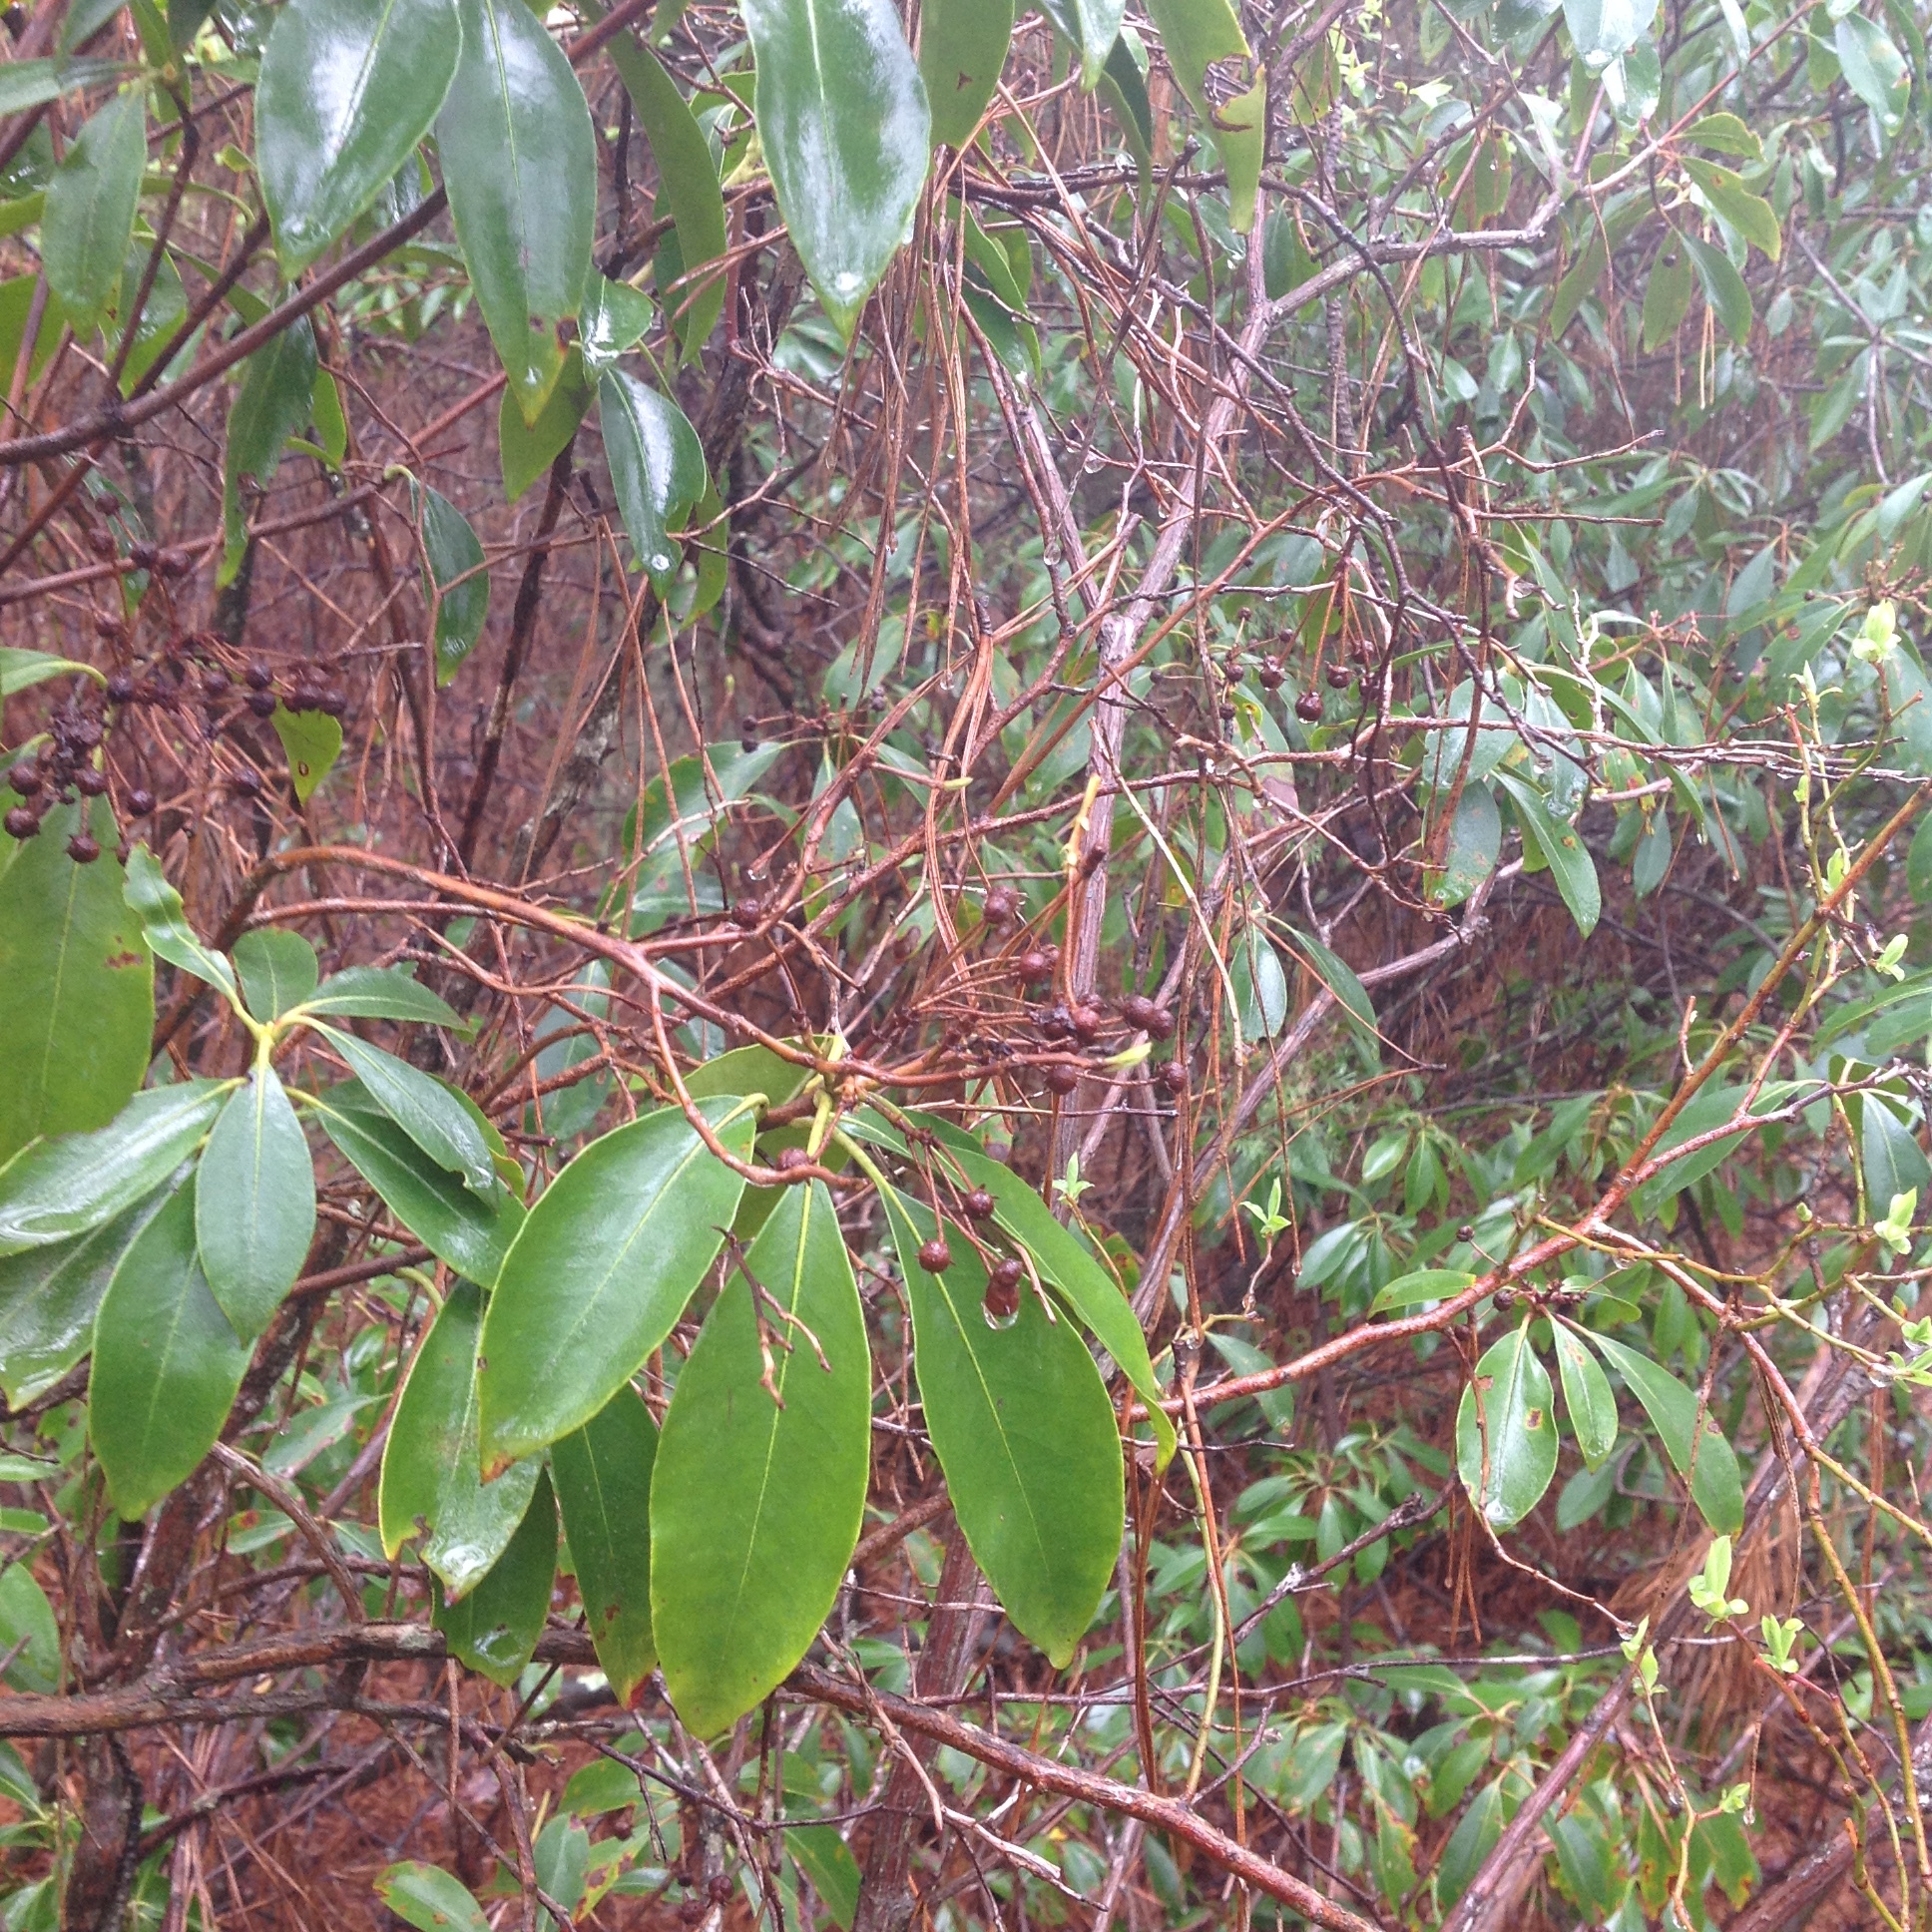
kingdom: Plantae
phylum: Tracheophyta
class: Magnoliopsida
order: Ericales
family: Ericaceae
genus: Kalmia
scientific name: Kalmia latifolia
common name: Mountain-laurel
